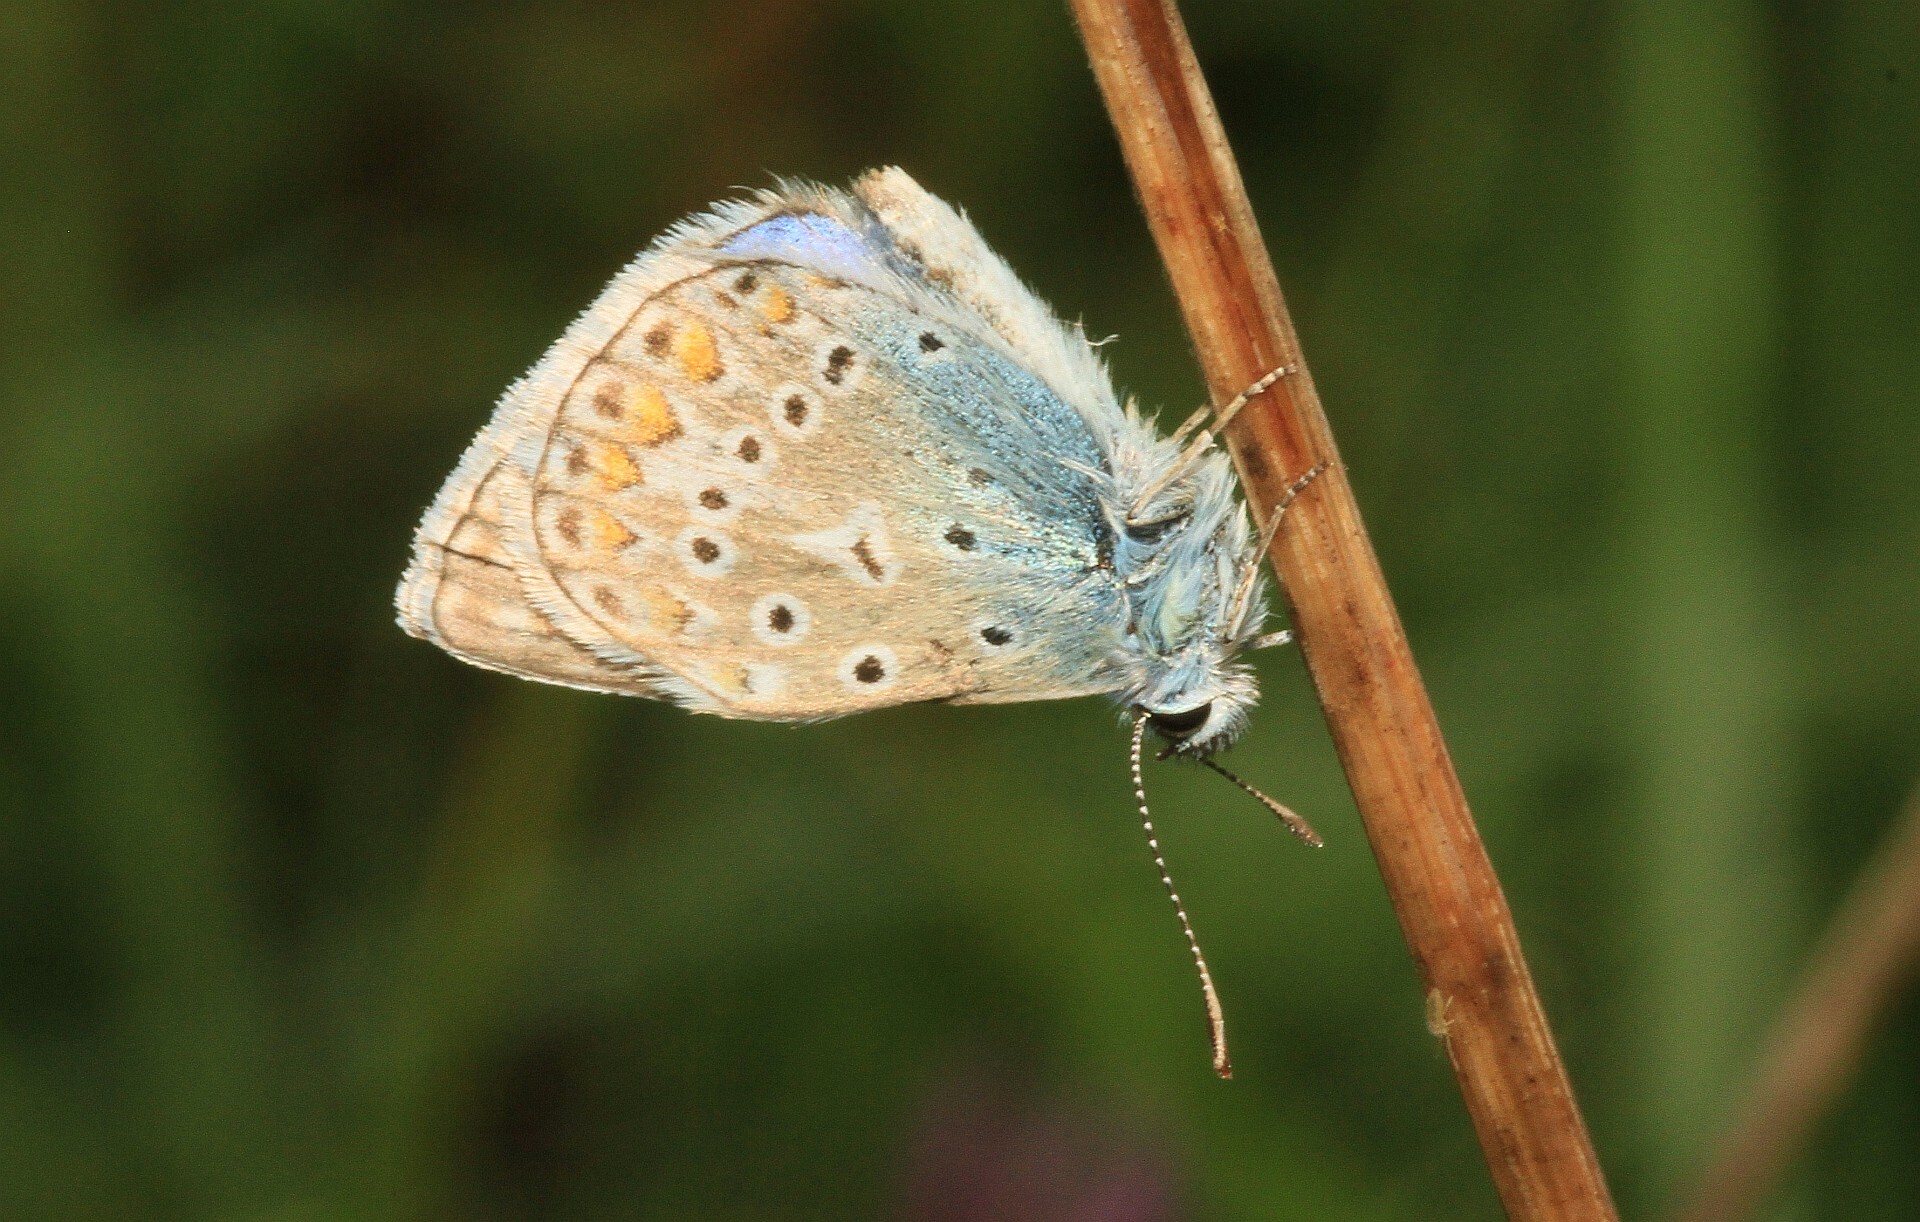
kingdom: Animalia
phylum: Arthropoda
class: Insecta
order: Lepidoptera
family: Lycaenidae
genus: Polyommatus
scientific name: Polyommatus icarus
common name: Common blue
